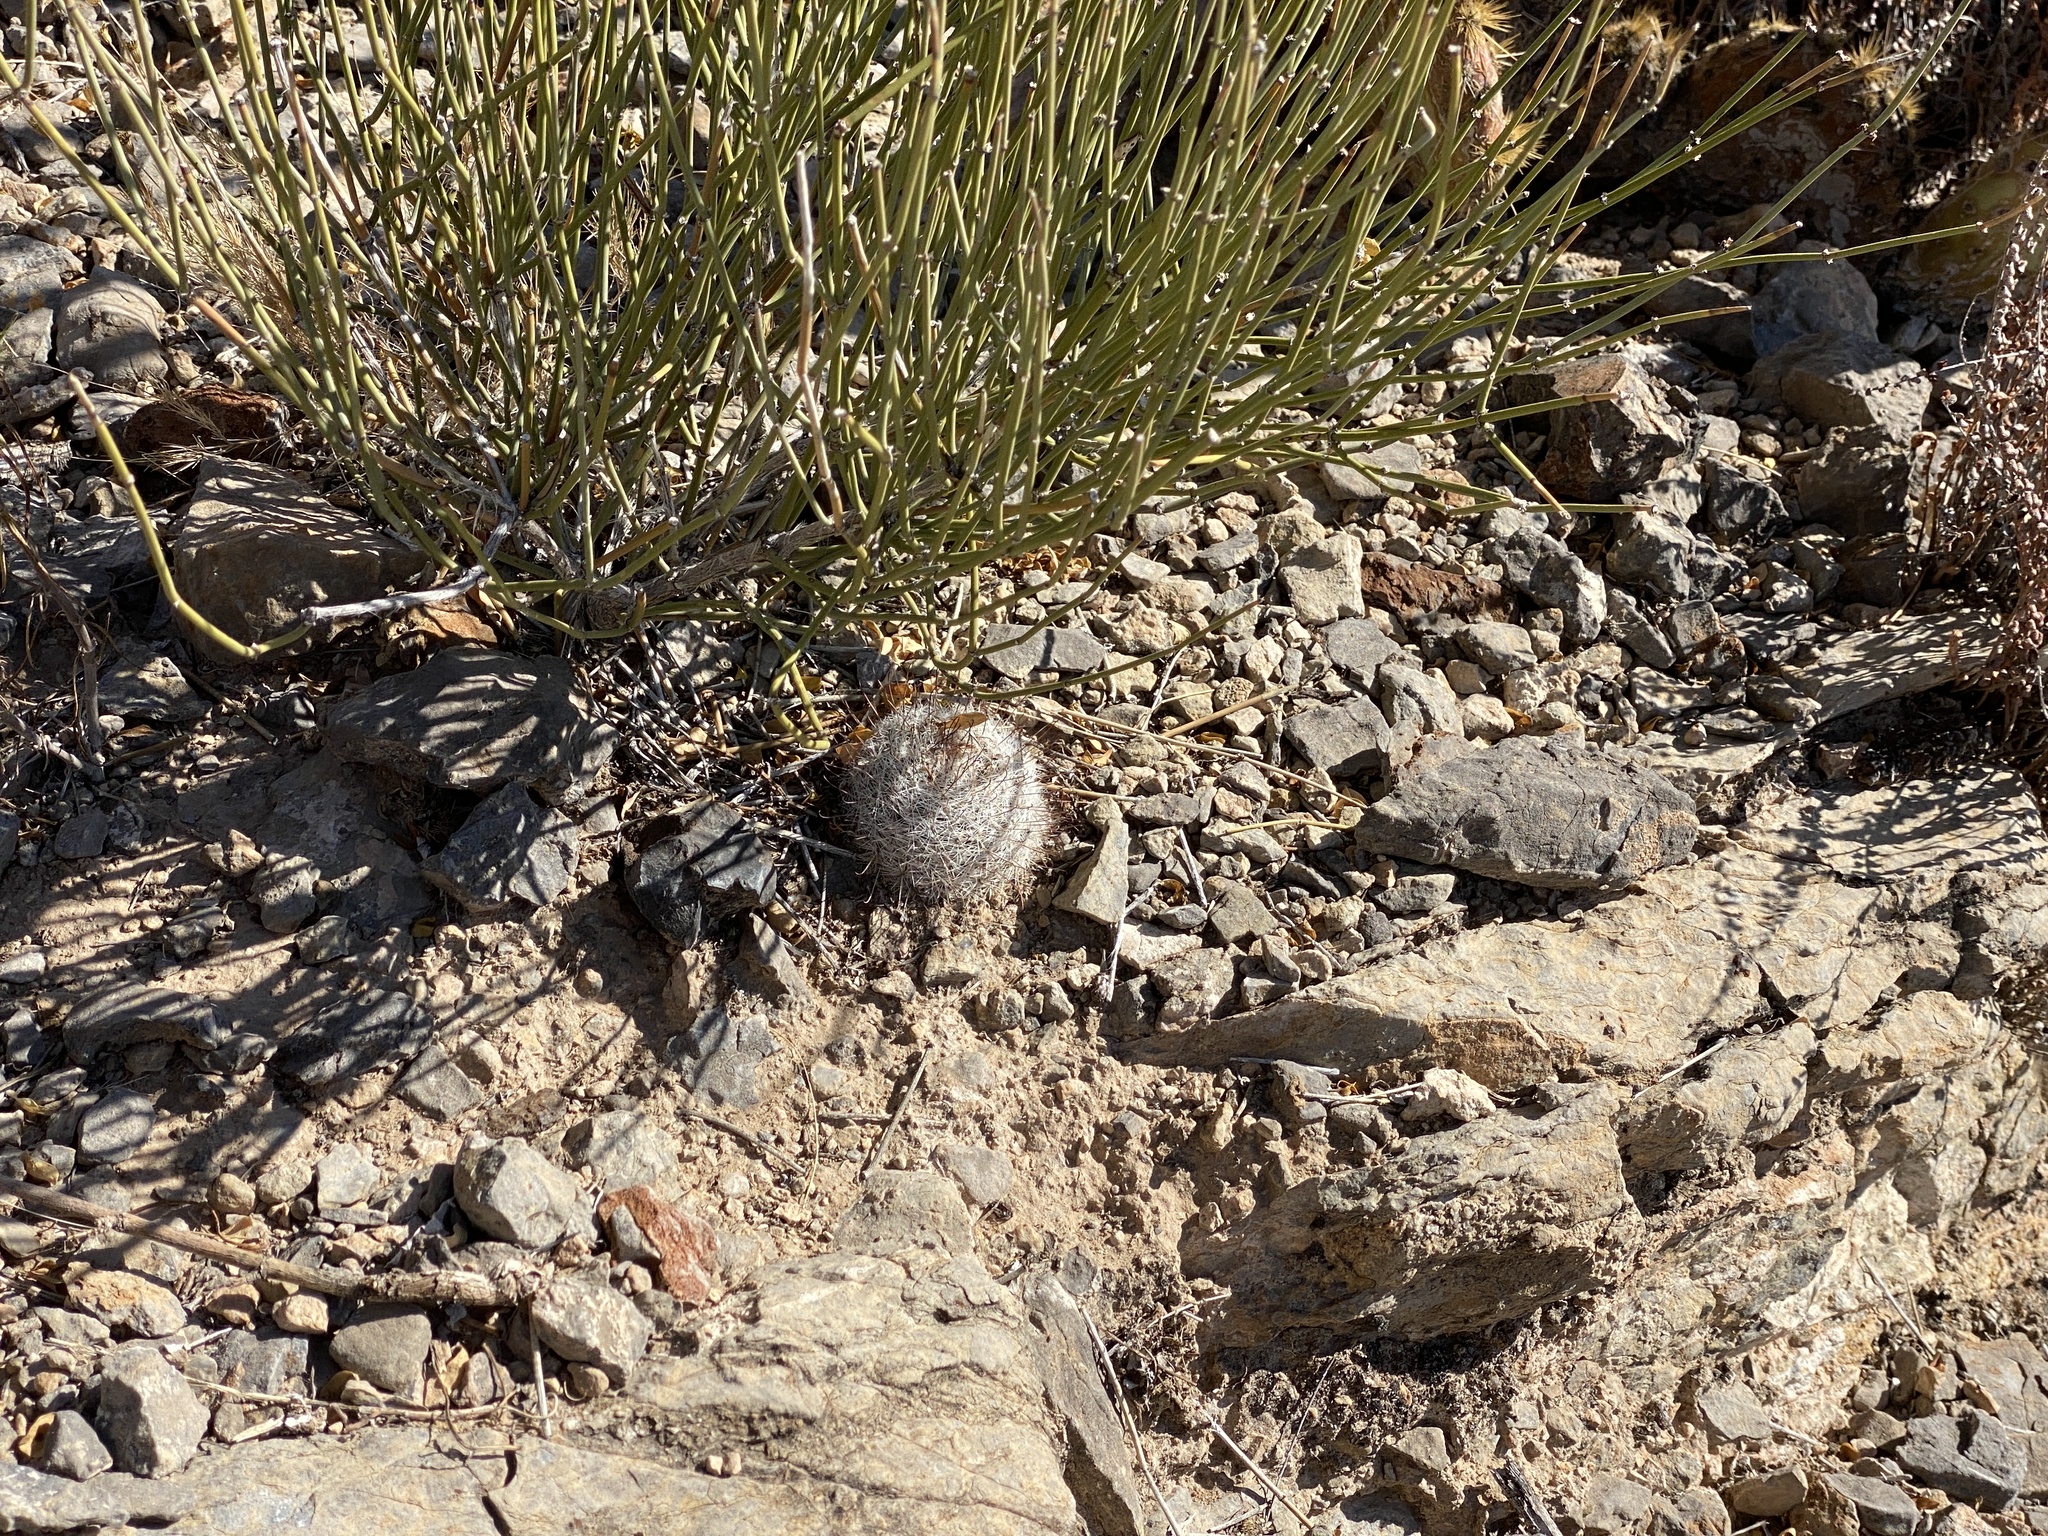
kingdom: Plantae
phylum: Tracheophyta
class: Magnoliopsida
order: Caryophyllales
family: Cactaceae
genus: Cochemiea
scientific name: Cochemiea grahamii
